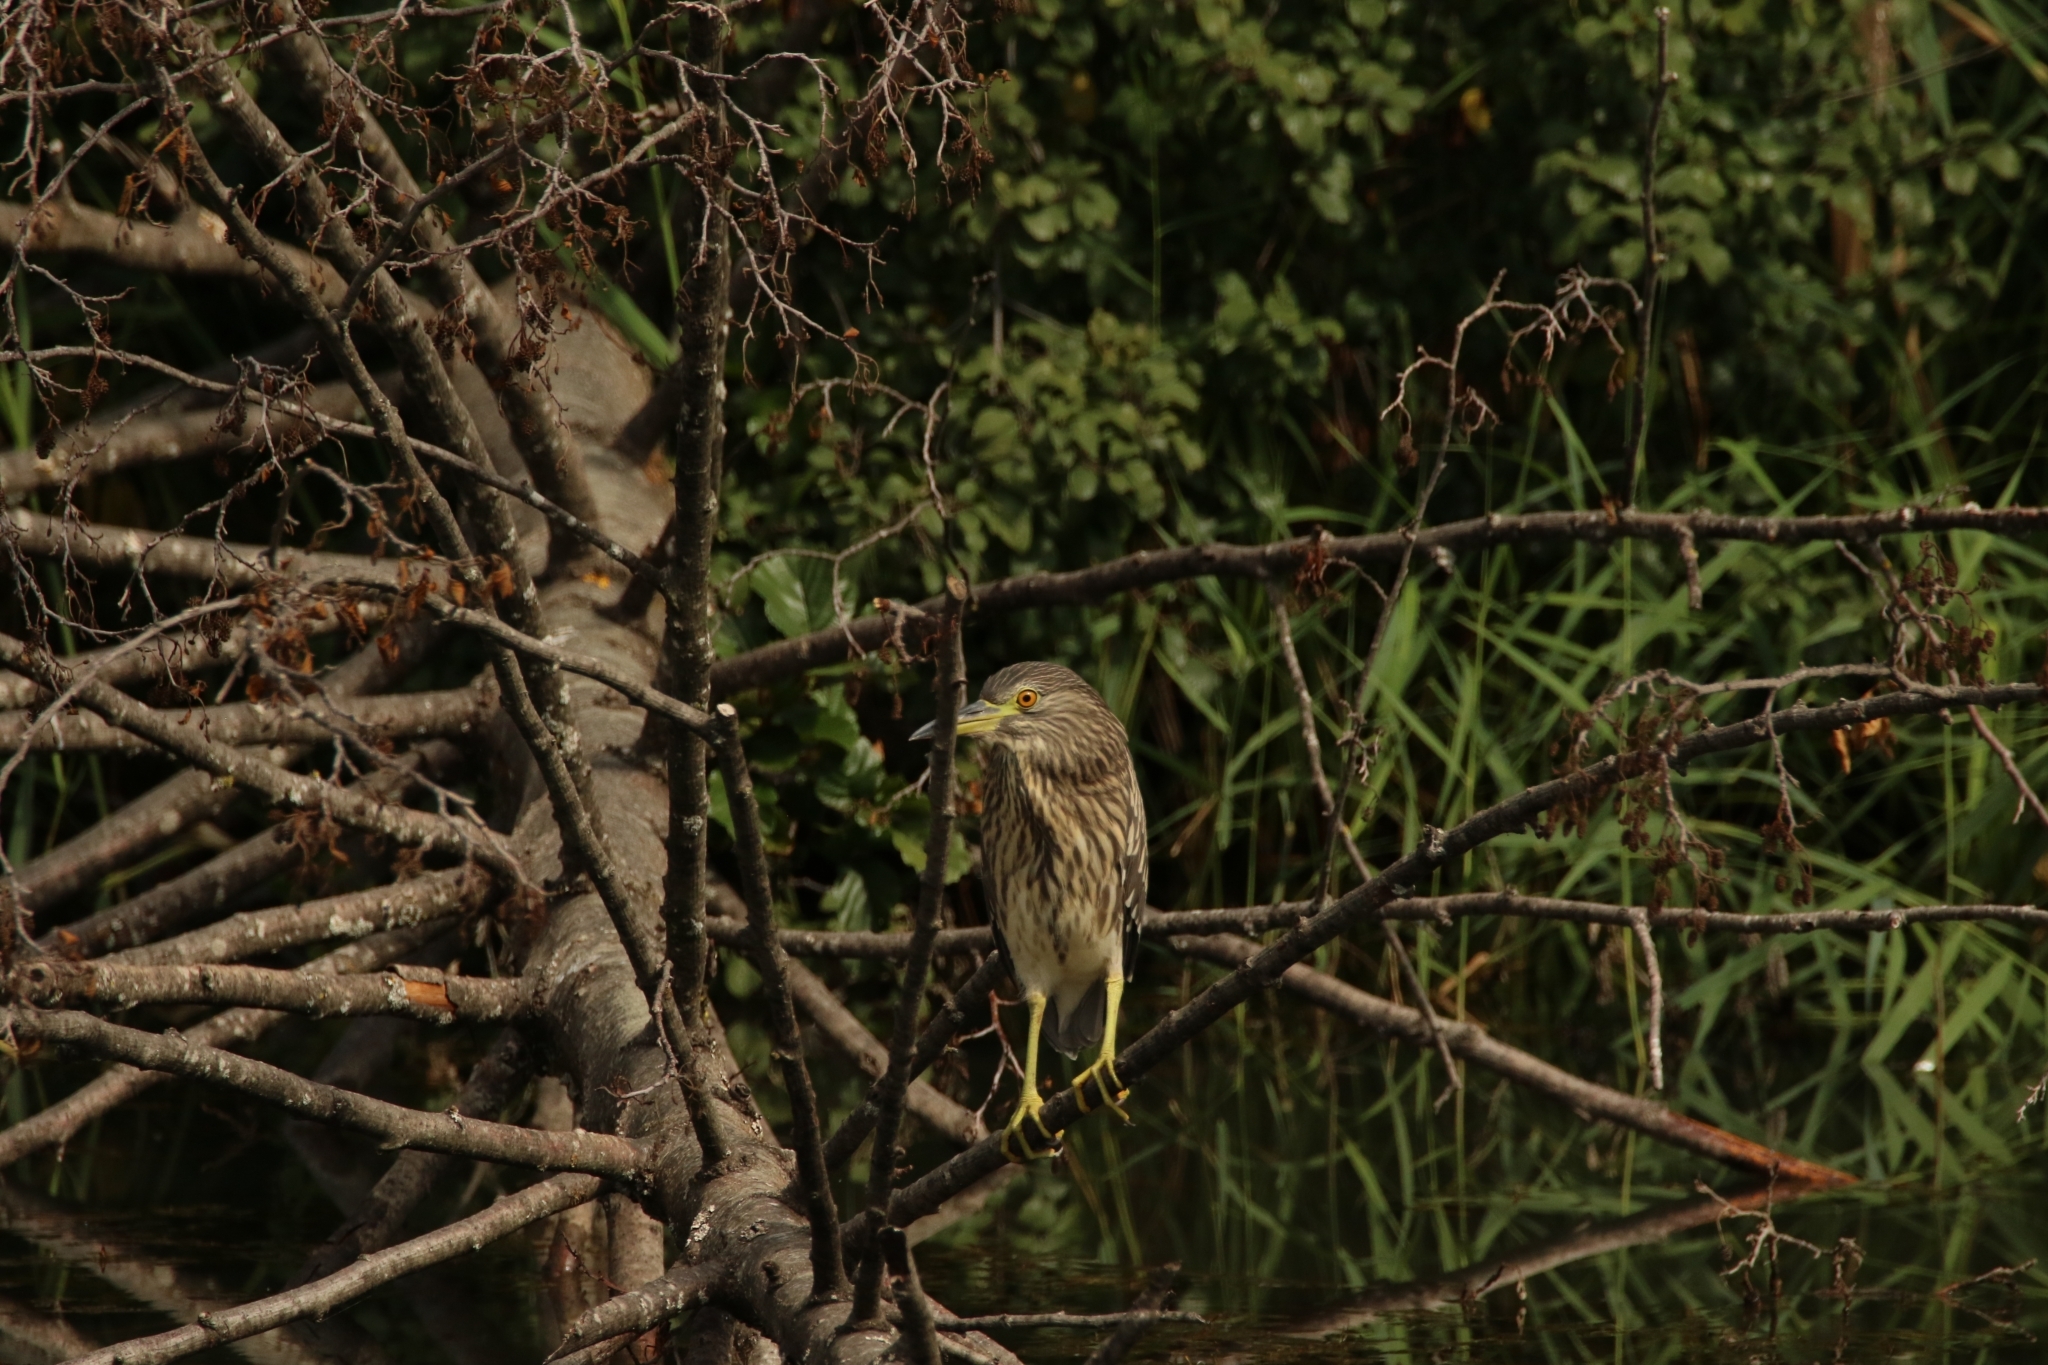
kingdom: Animalia
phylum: Chordata
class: Aves
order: Pelecaniformes
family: Ardeidae
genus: Nycticorax
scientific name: Nycticorax nycticorax
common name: Black-crowned night heron
